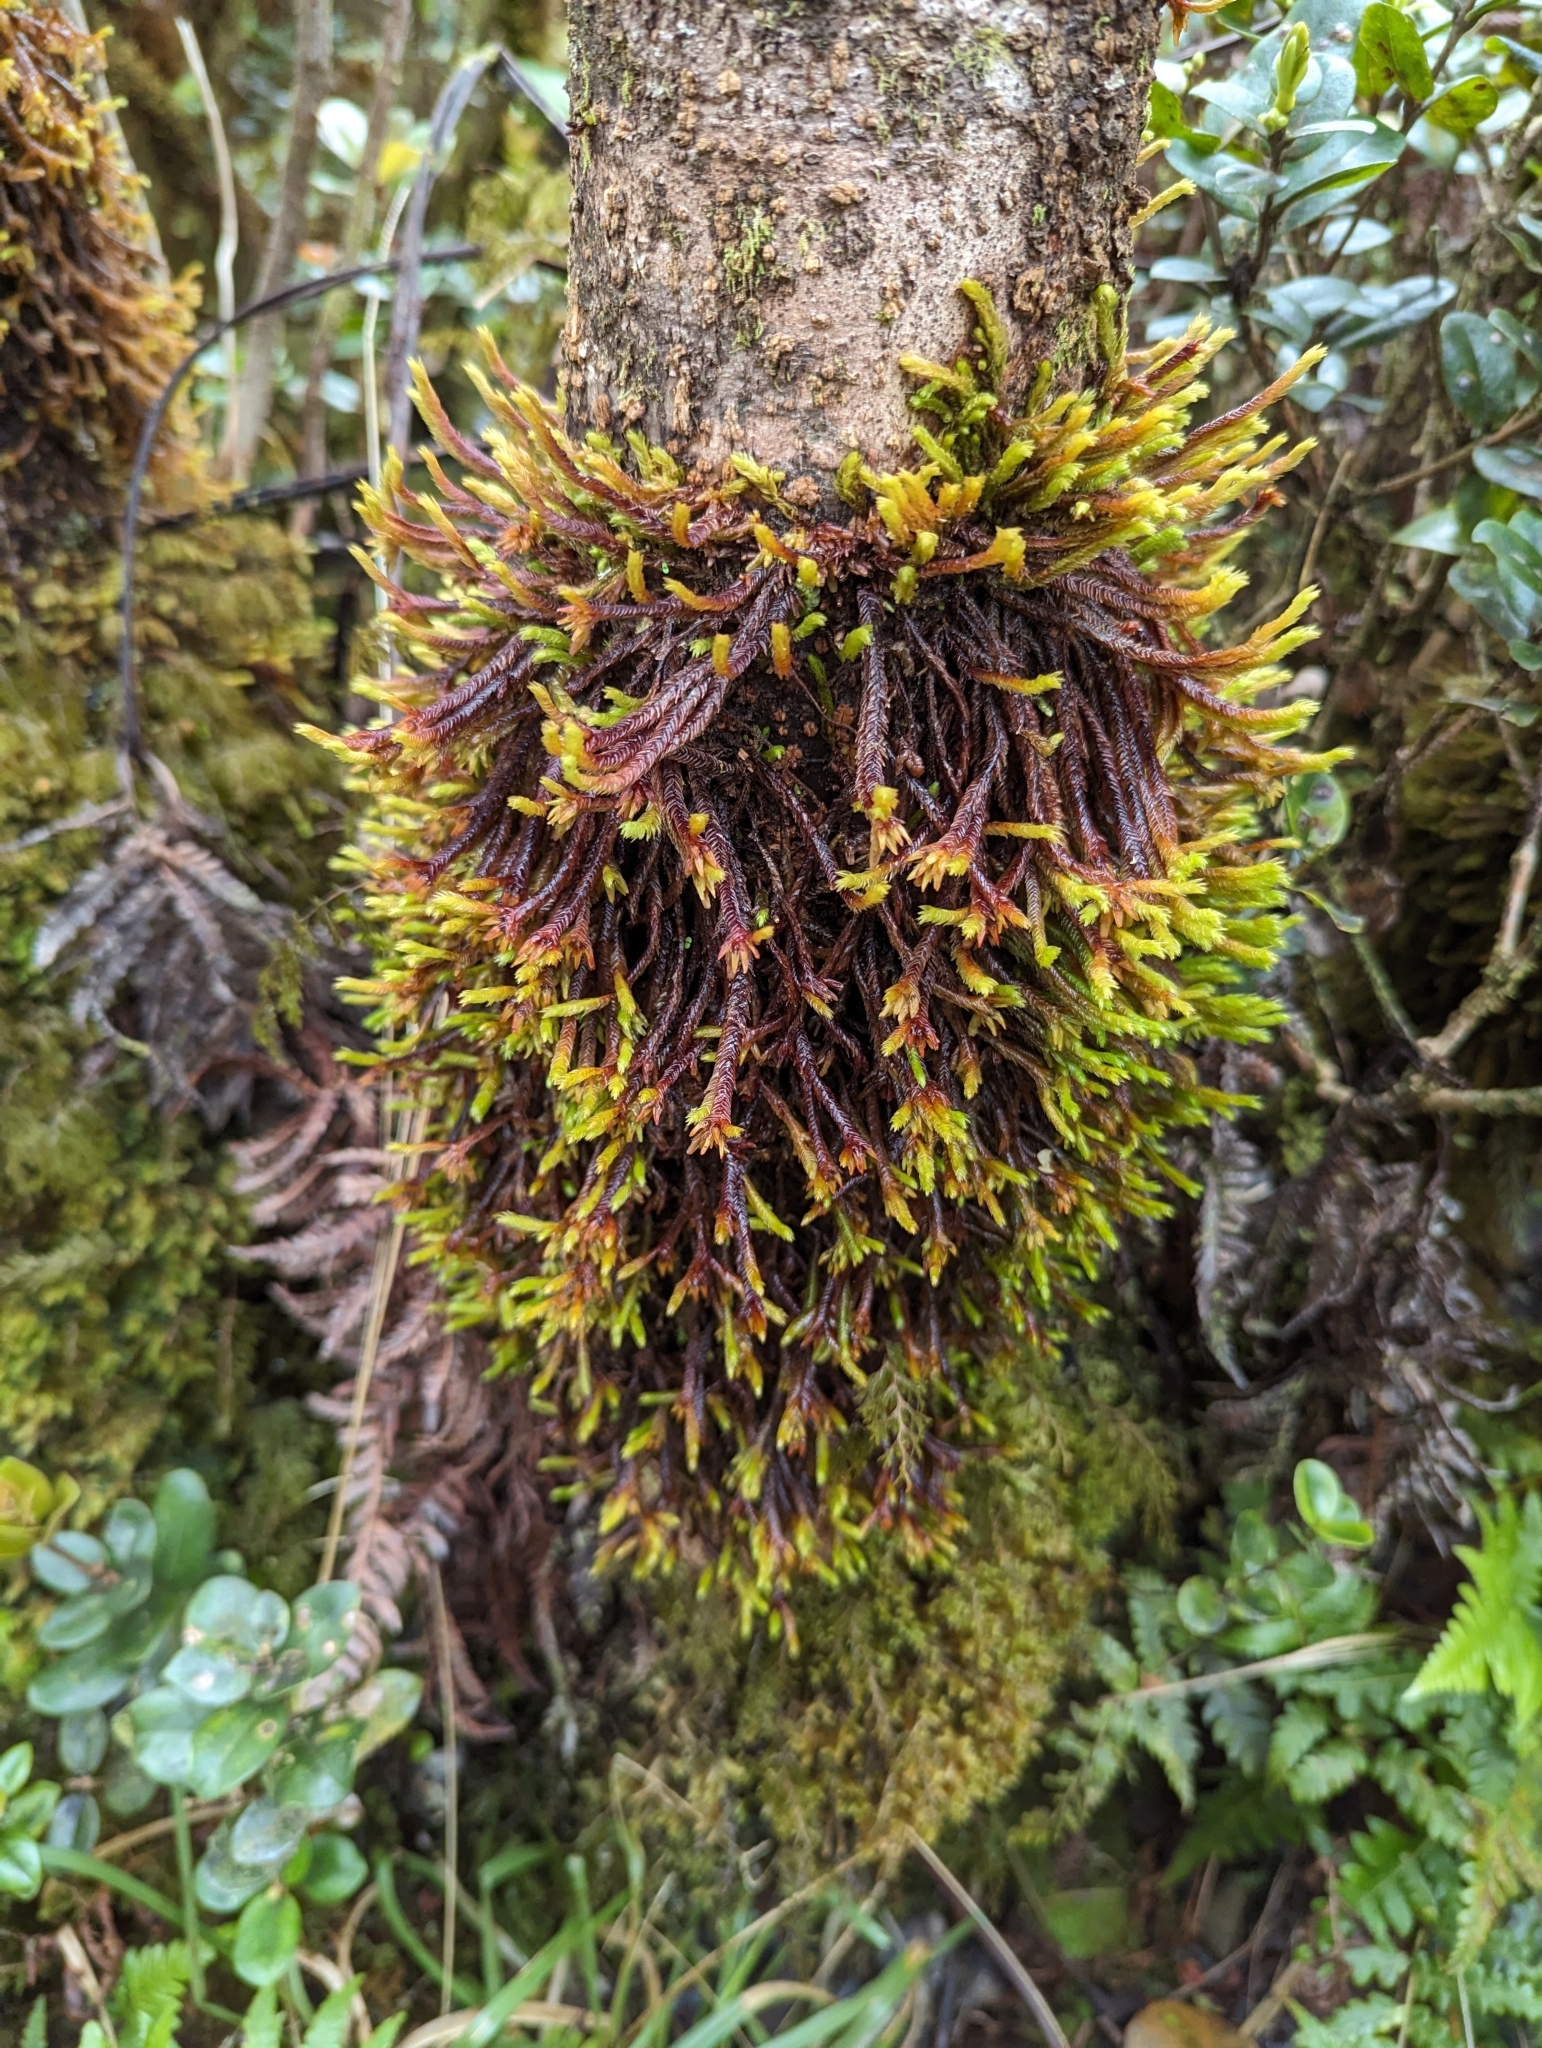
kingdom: Plantae
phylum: Marchantiophyta
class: Jungermanniopsida
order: Pleuroziales
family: Pleuroziaceae
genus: Pleurozia
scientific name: Pleurozia subinflata
